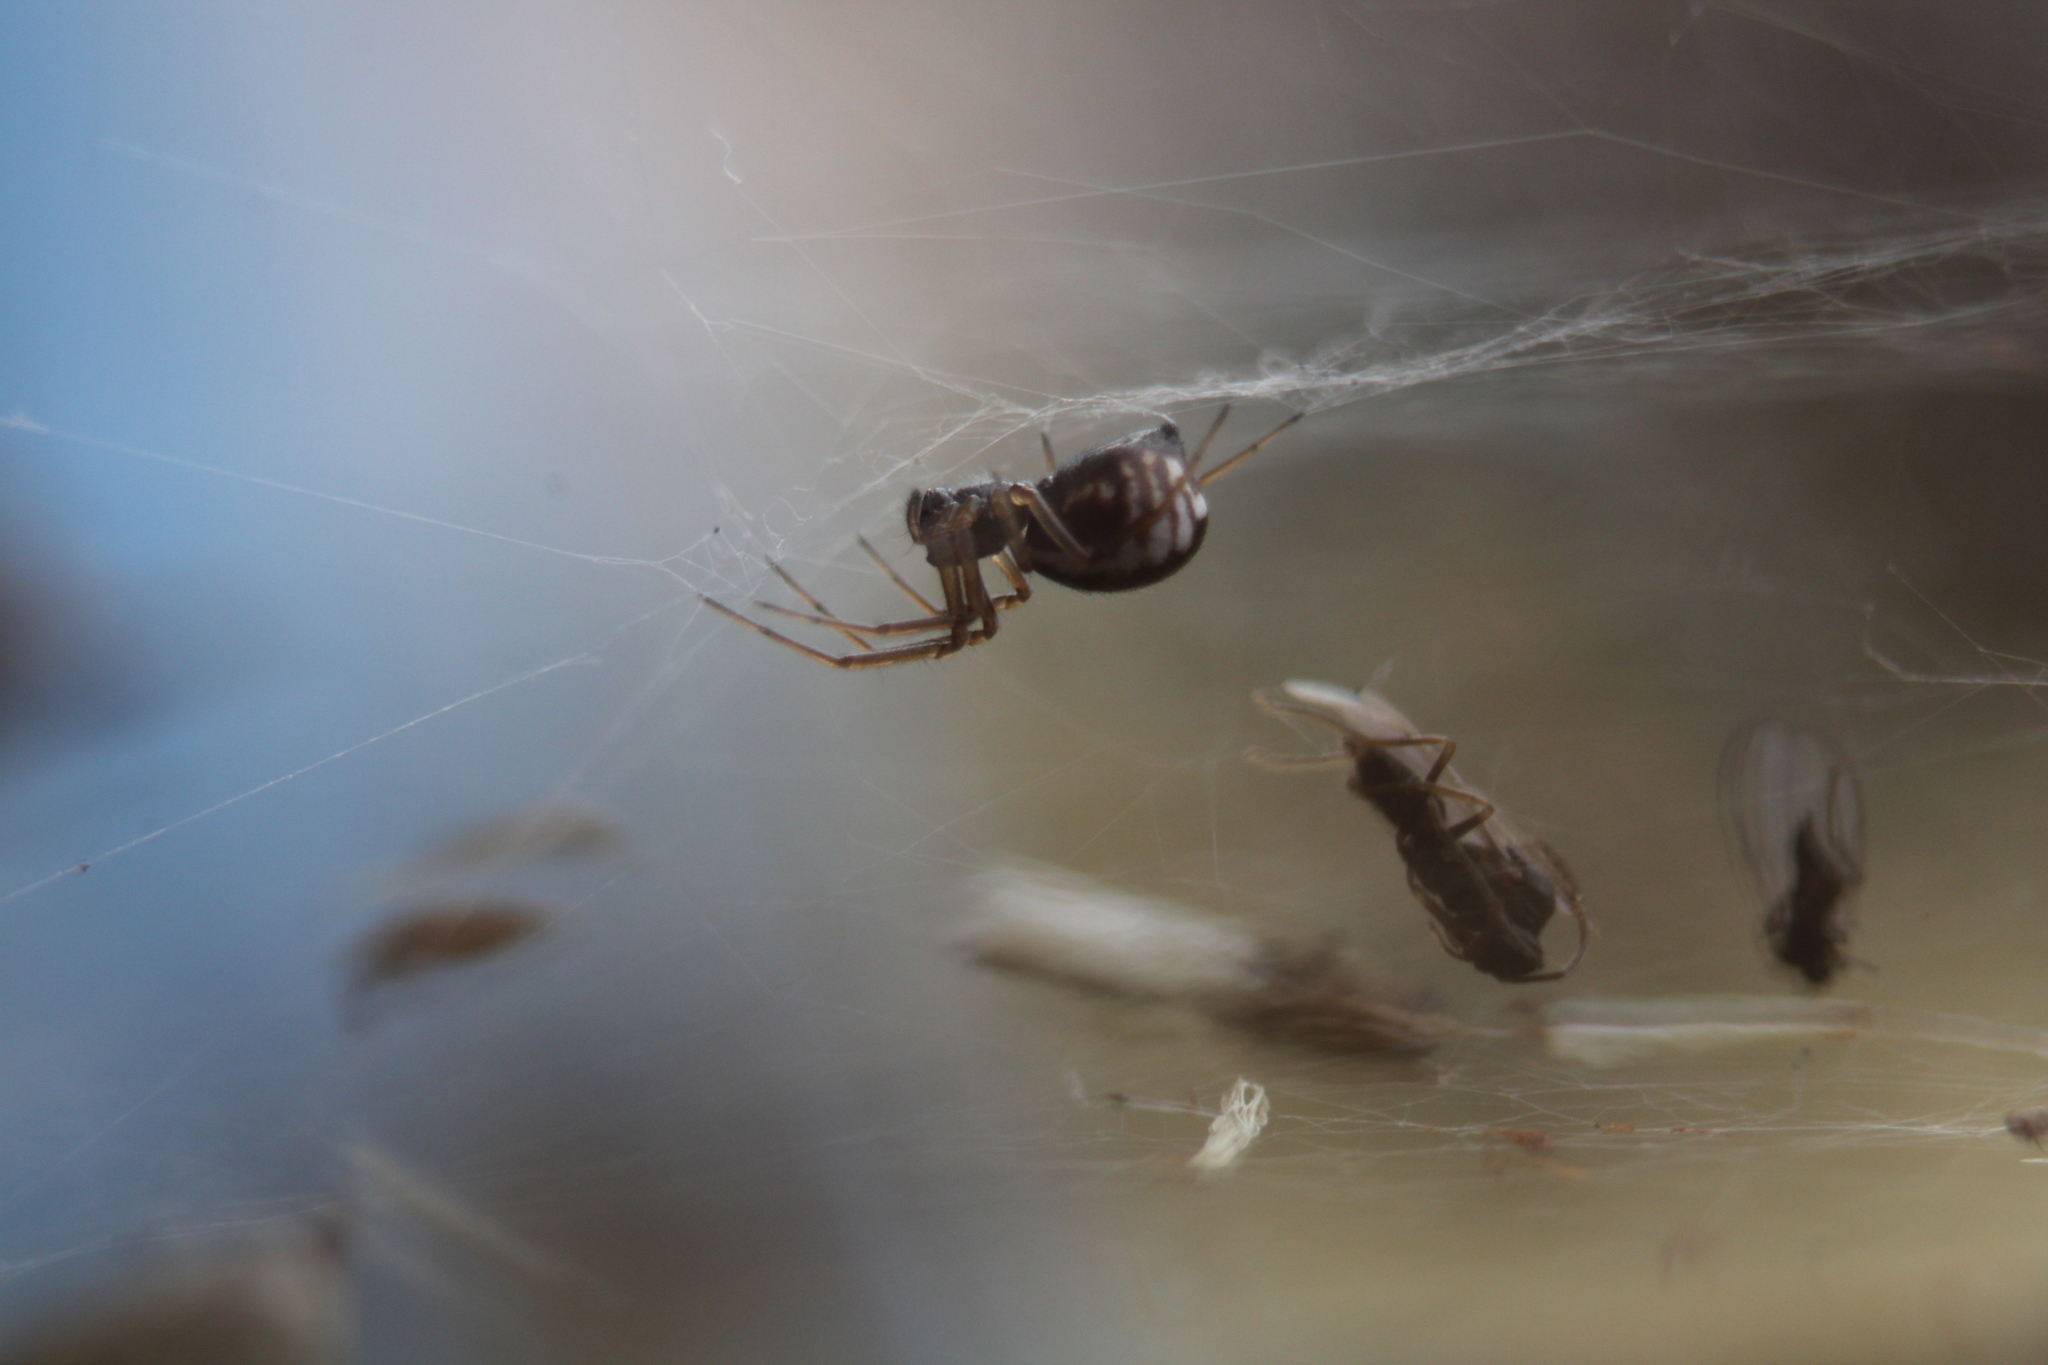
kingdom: Animalia
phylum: Arthropoda
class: Arachnida
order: Araneae
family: Linyphiidae
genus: Frontinella
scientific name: Frontinella pyramitela
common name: Bowl-and-doily spider
